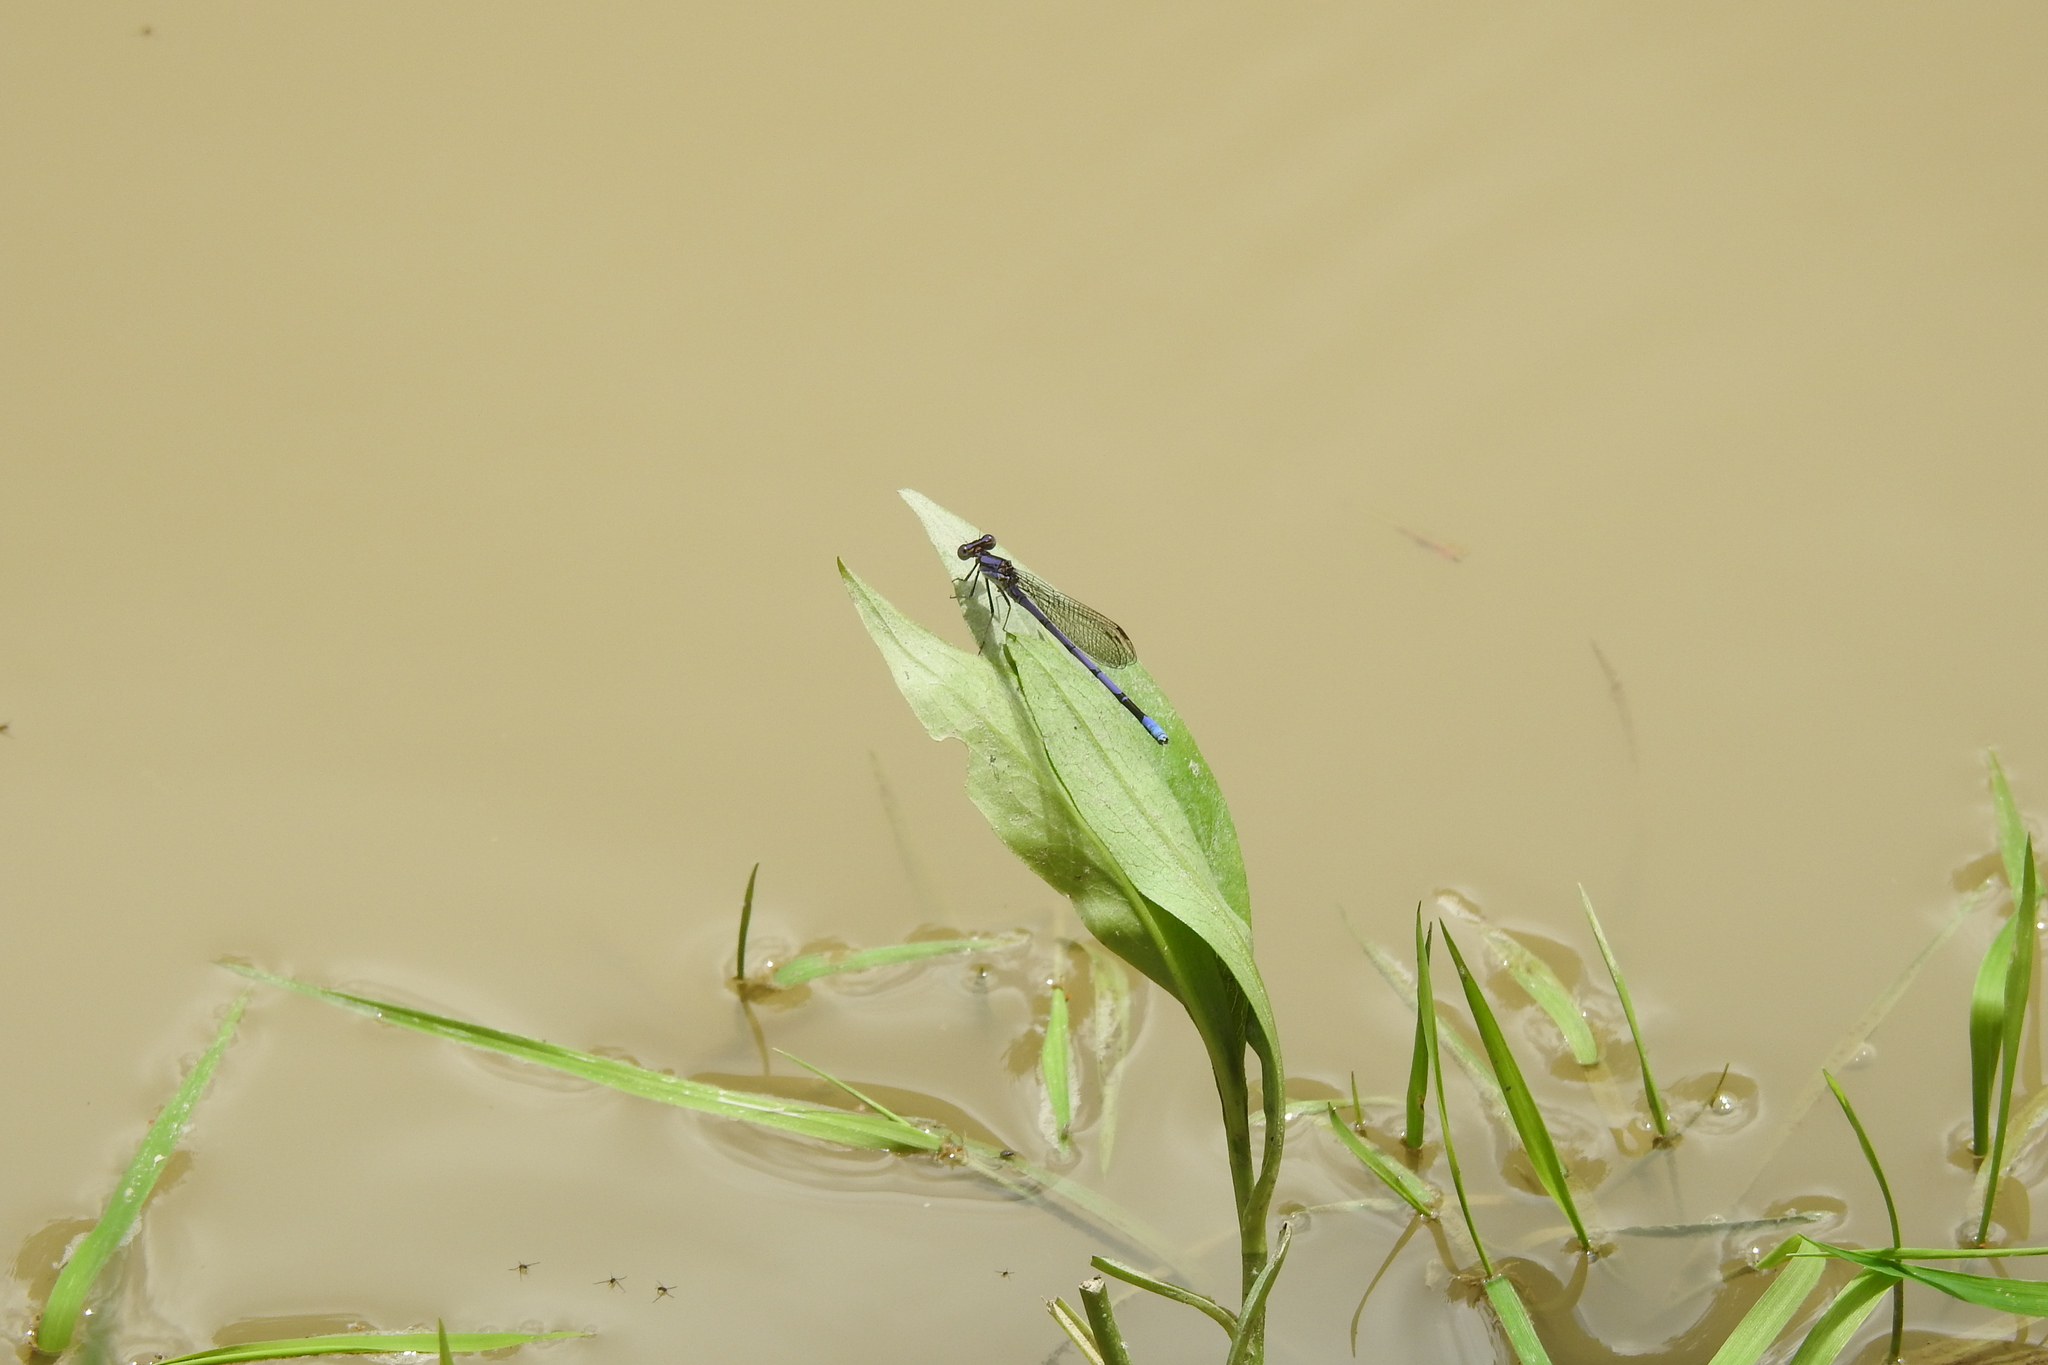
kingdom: Animalia
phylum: Arthropoda
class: Insecta
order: Odonata
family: Coenagrionidae
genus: Argia
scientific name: Argia fumipennis
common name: Variable dancer
